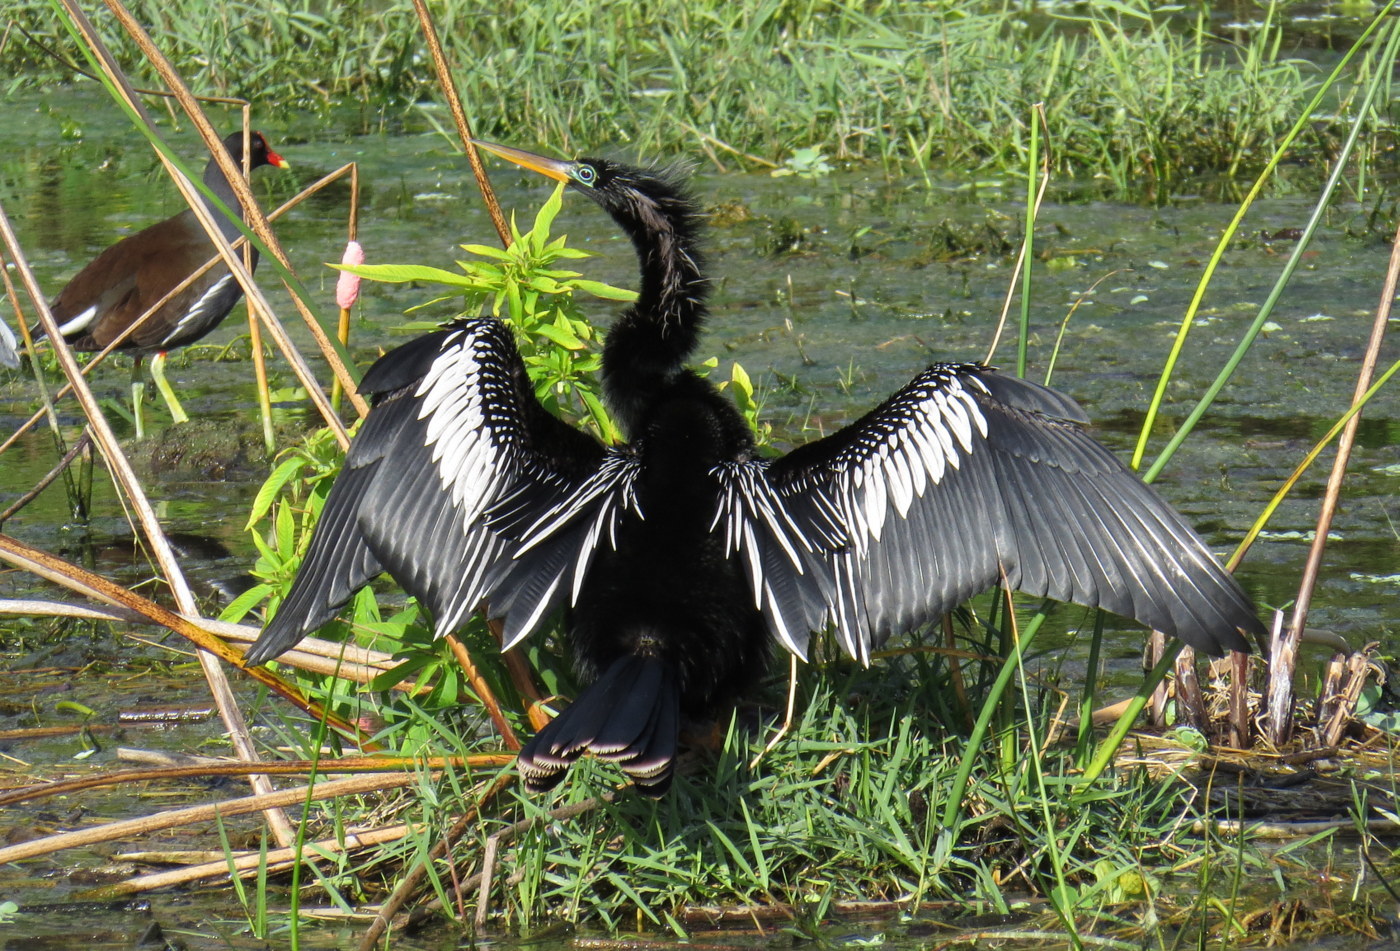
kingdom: Animalia
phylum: Chordata
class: Aves
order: Suliformes
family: Anhingidae
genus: Anhinga
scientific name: Anhinga anhinga
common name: Anhinga
